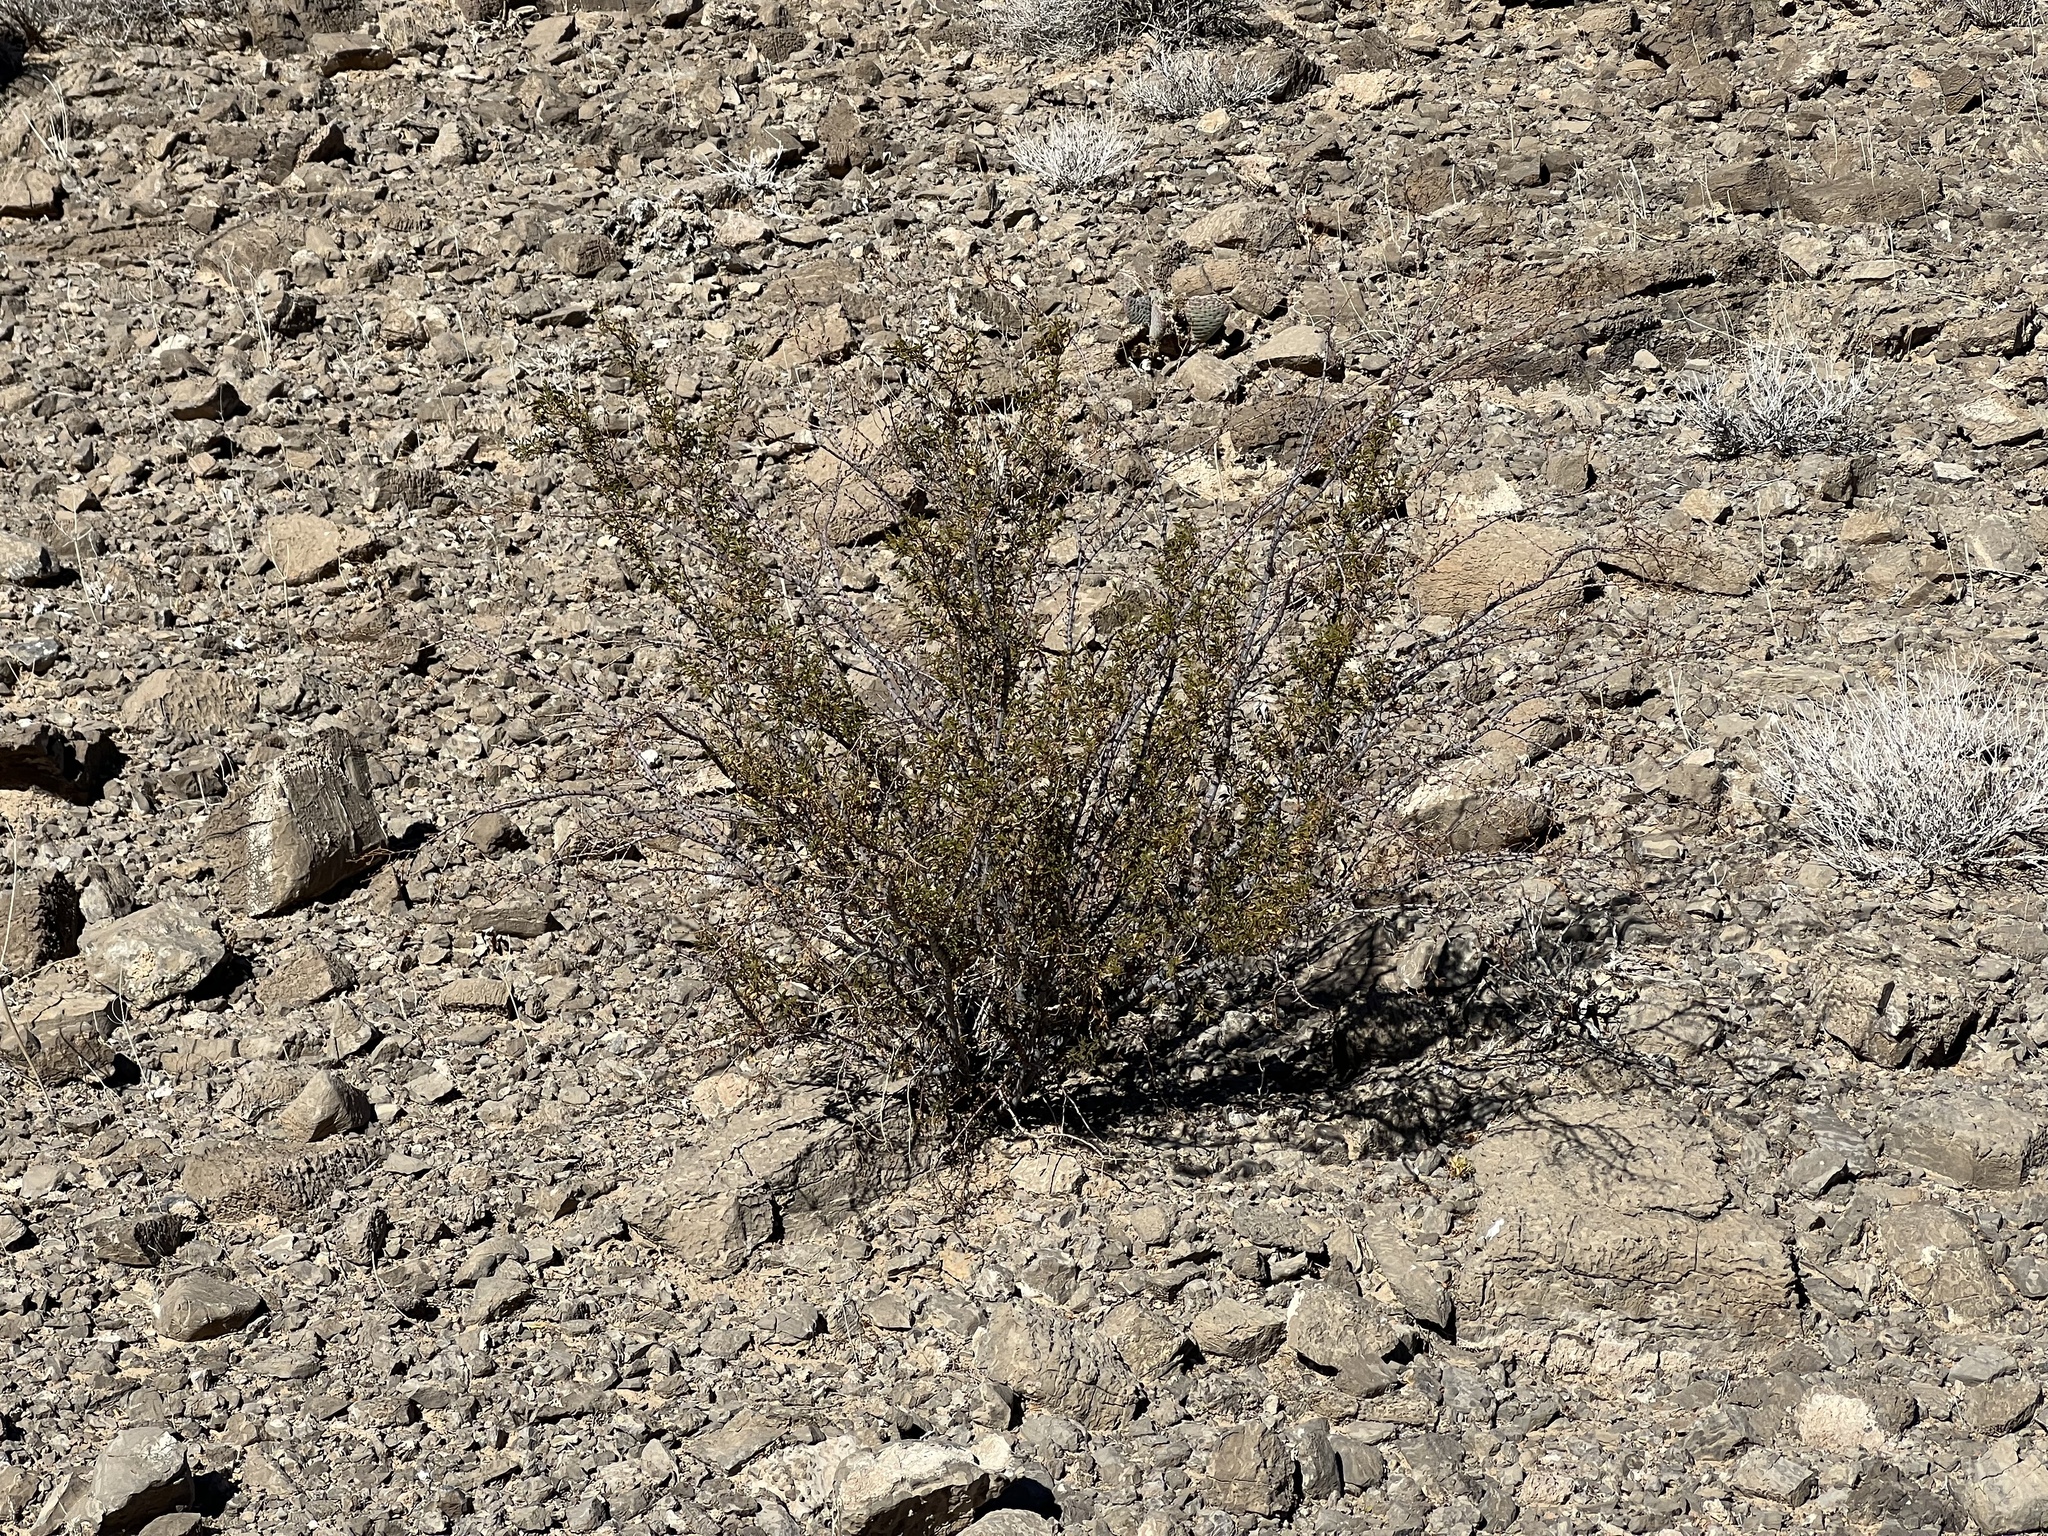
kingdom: Plantae
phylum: Tracheophyta
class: Magnoliopsida
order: Zygophyllales
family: Zygophyllaceae
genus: Larrea
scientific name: Larrea tridentata
